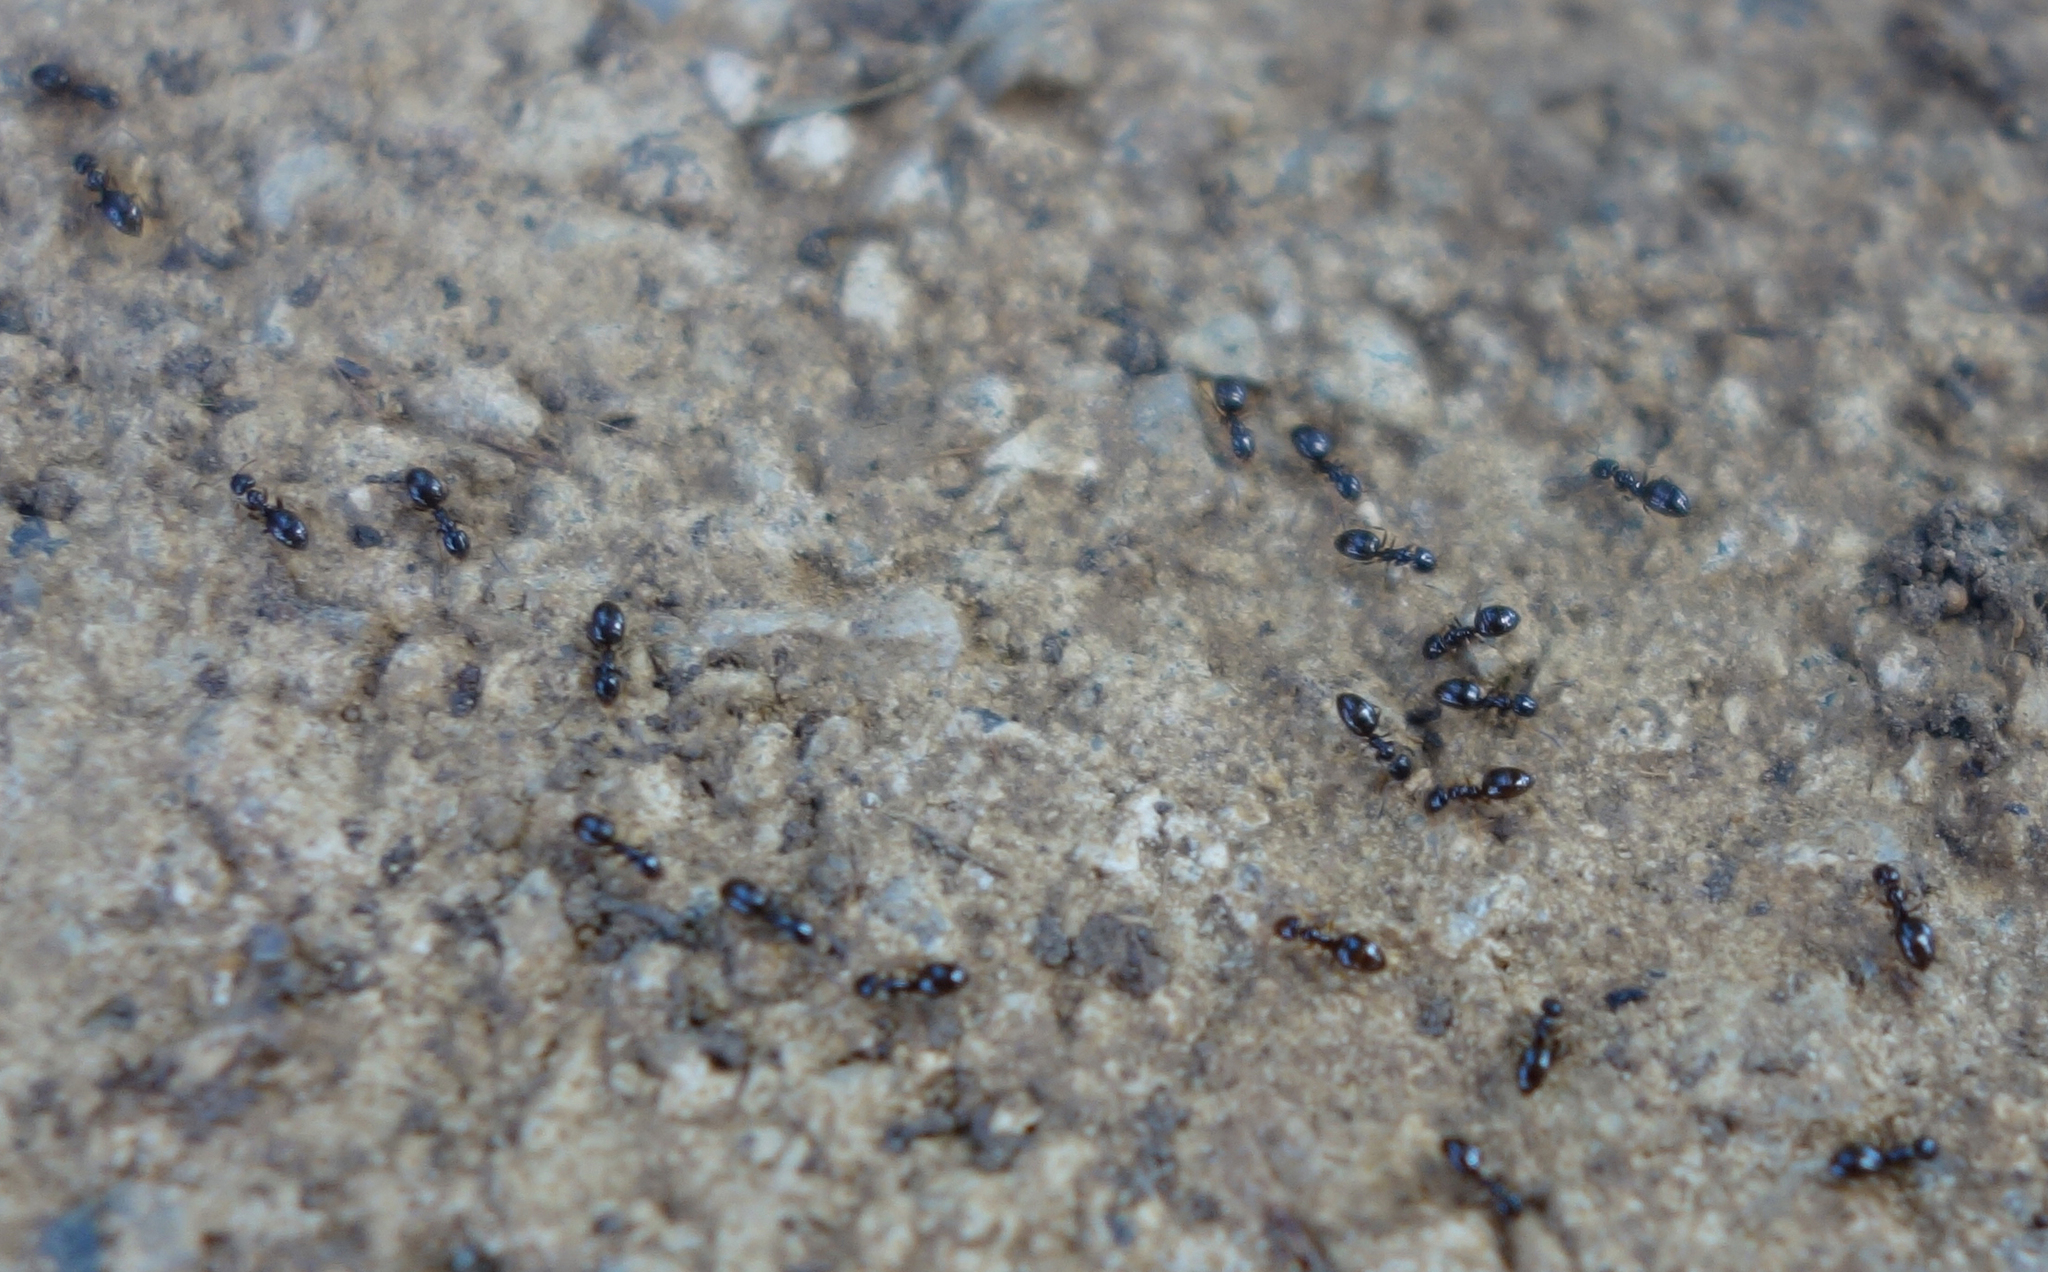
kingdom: Animalia
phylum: Arthropoda
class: Insecta
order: Hymenoptera
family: Formicidae
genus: Plagiolepis
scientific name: Plagiolepis pygmaea
